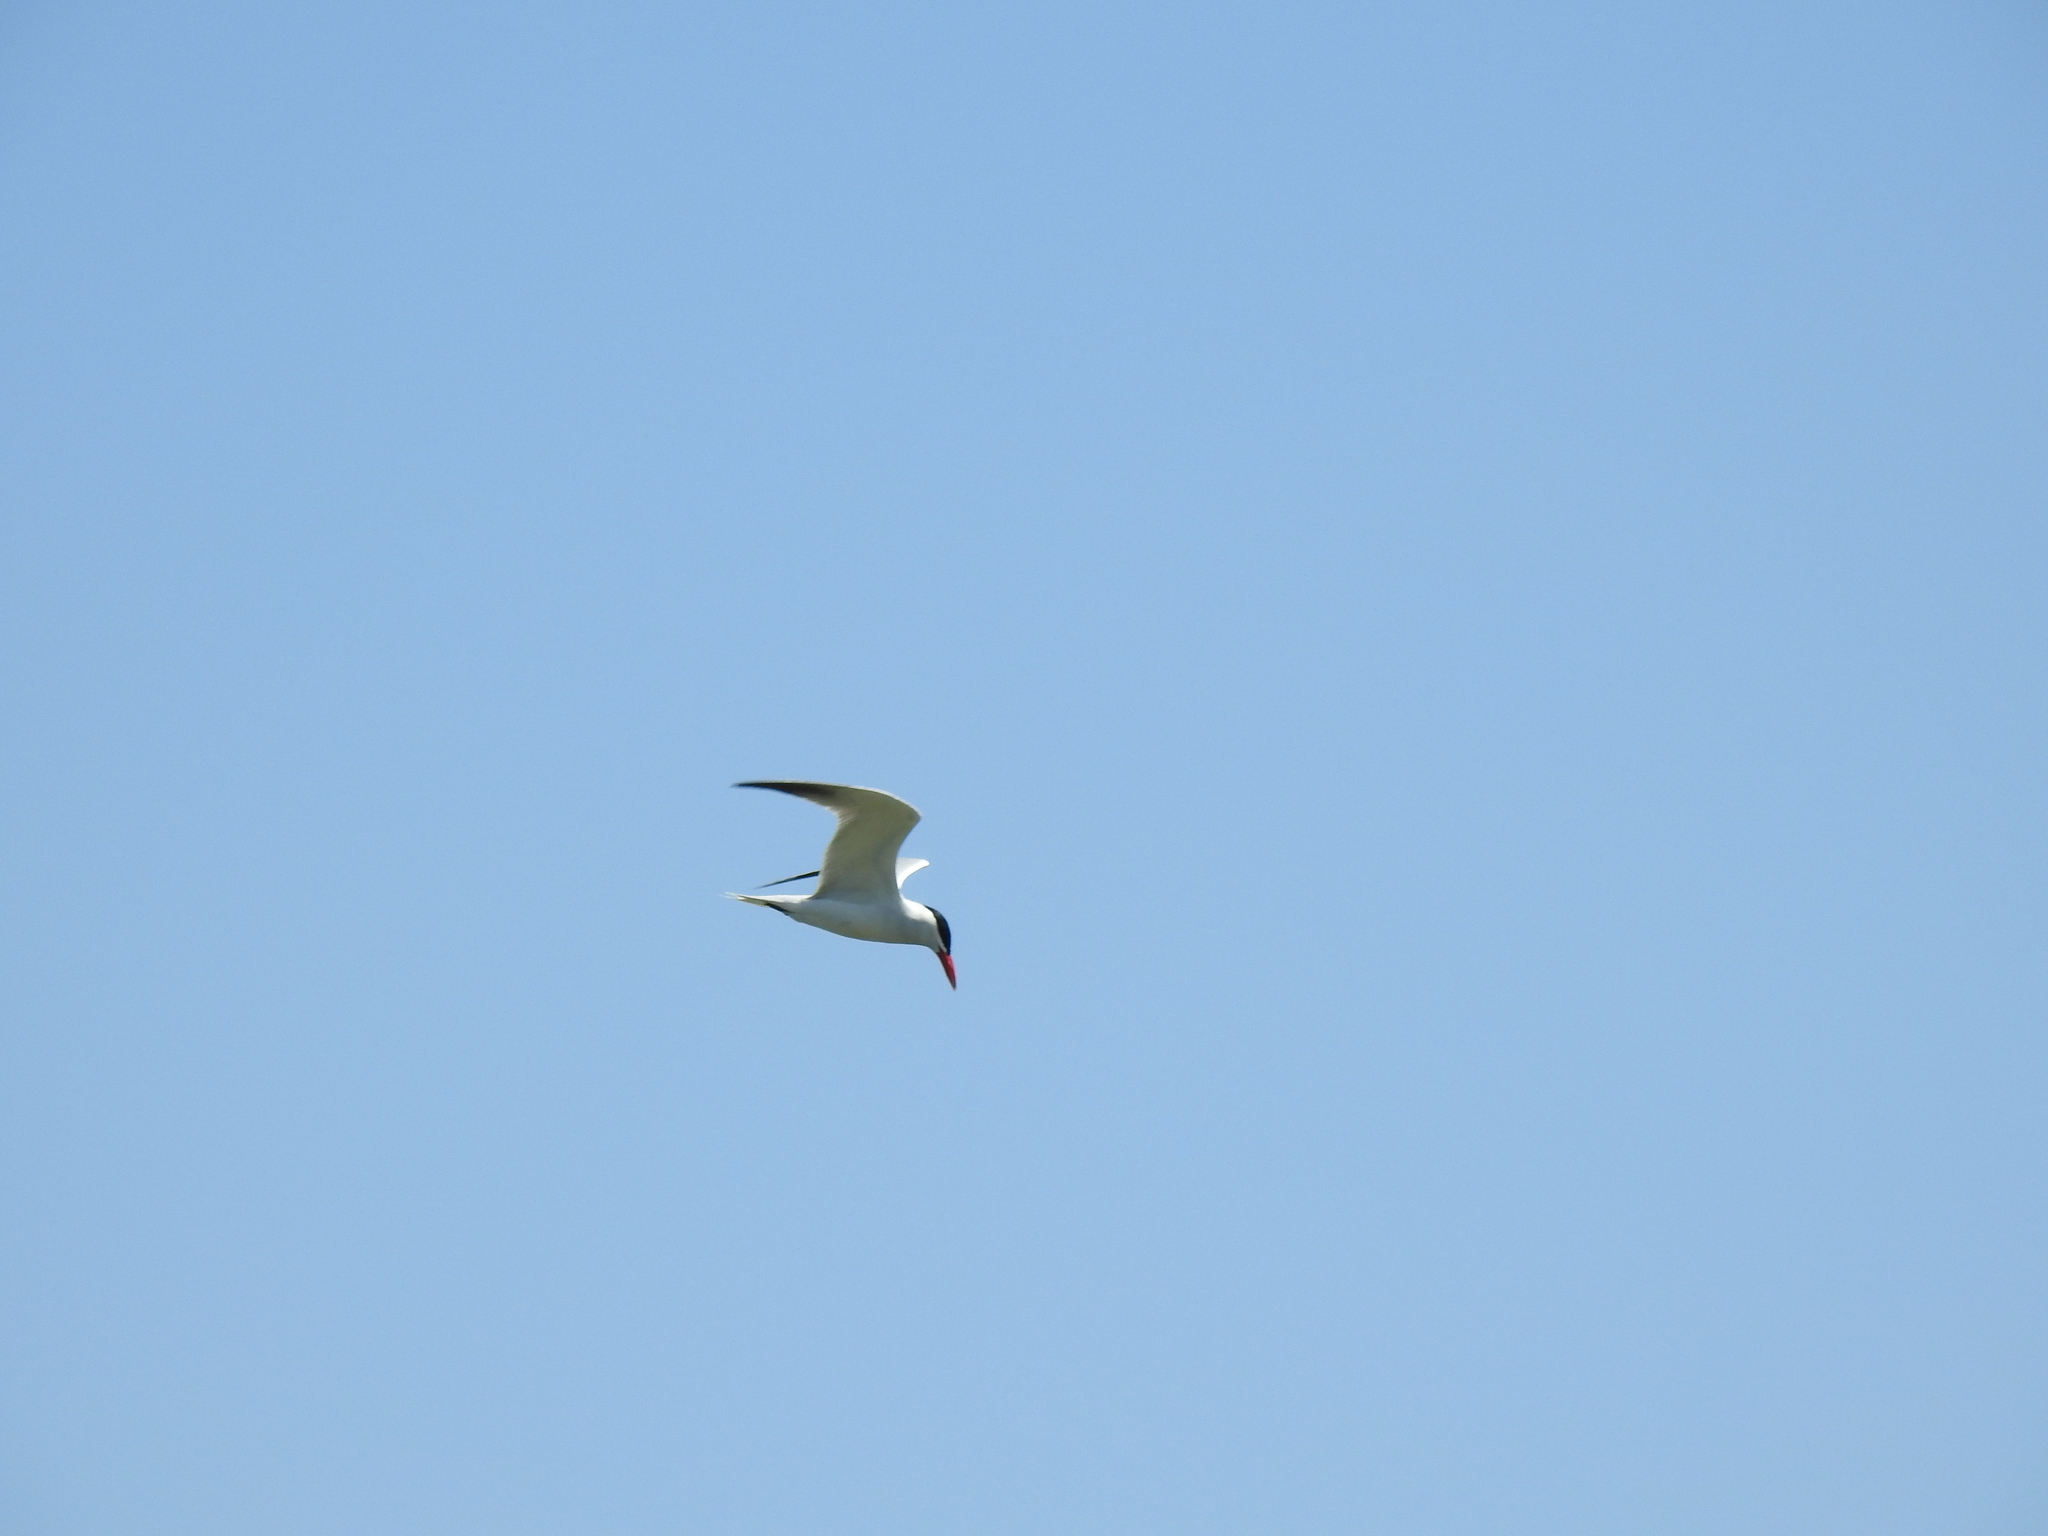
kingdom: Animalia
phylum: Chordata
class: Aves
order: Charadriiformes
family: Laridae
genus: Hydroprogne
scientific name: Hydroprogne caspia
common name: Caspian tern
